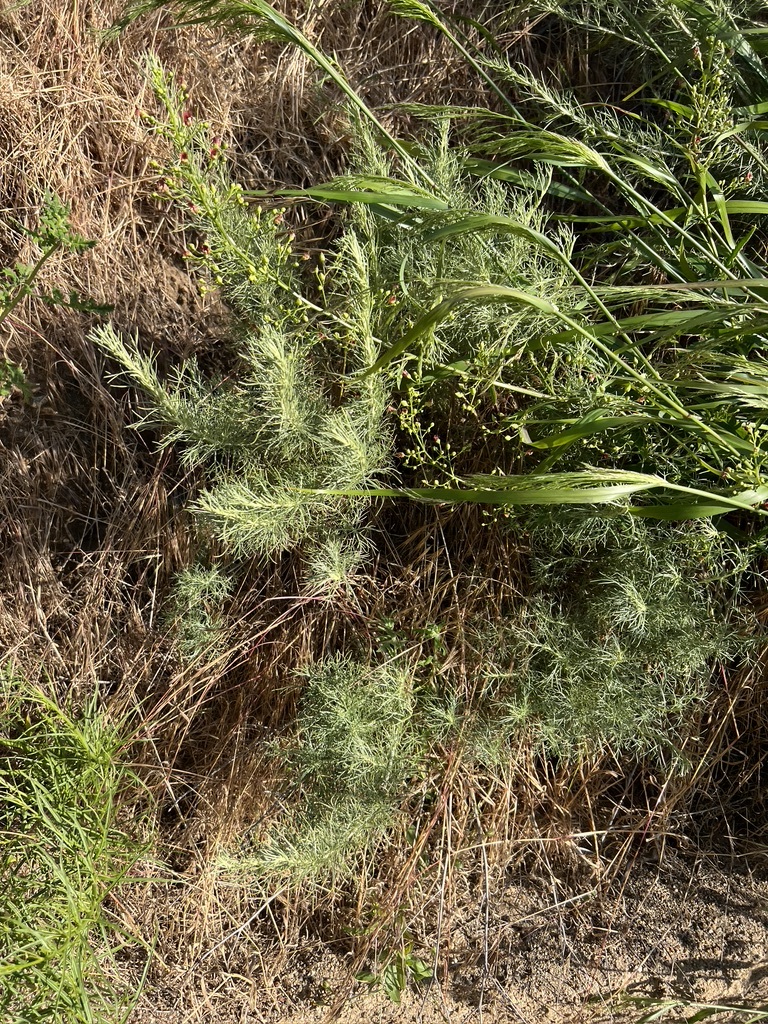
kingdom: Plantae
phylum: Tracheophyta
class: Magnoliopsida
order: Asterales
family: Asteraceae
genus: Artemisia
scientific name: Artemisia californica
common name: California sagebrush
